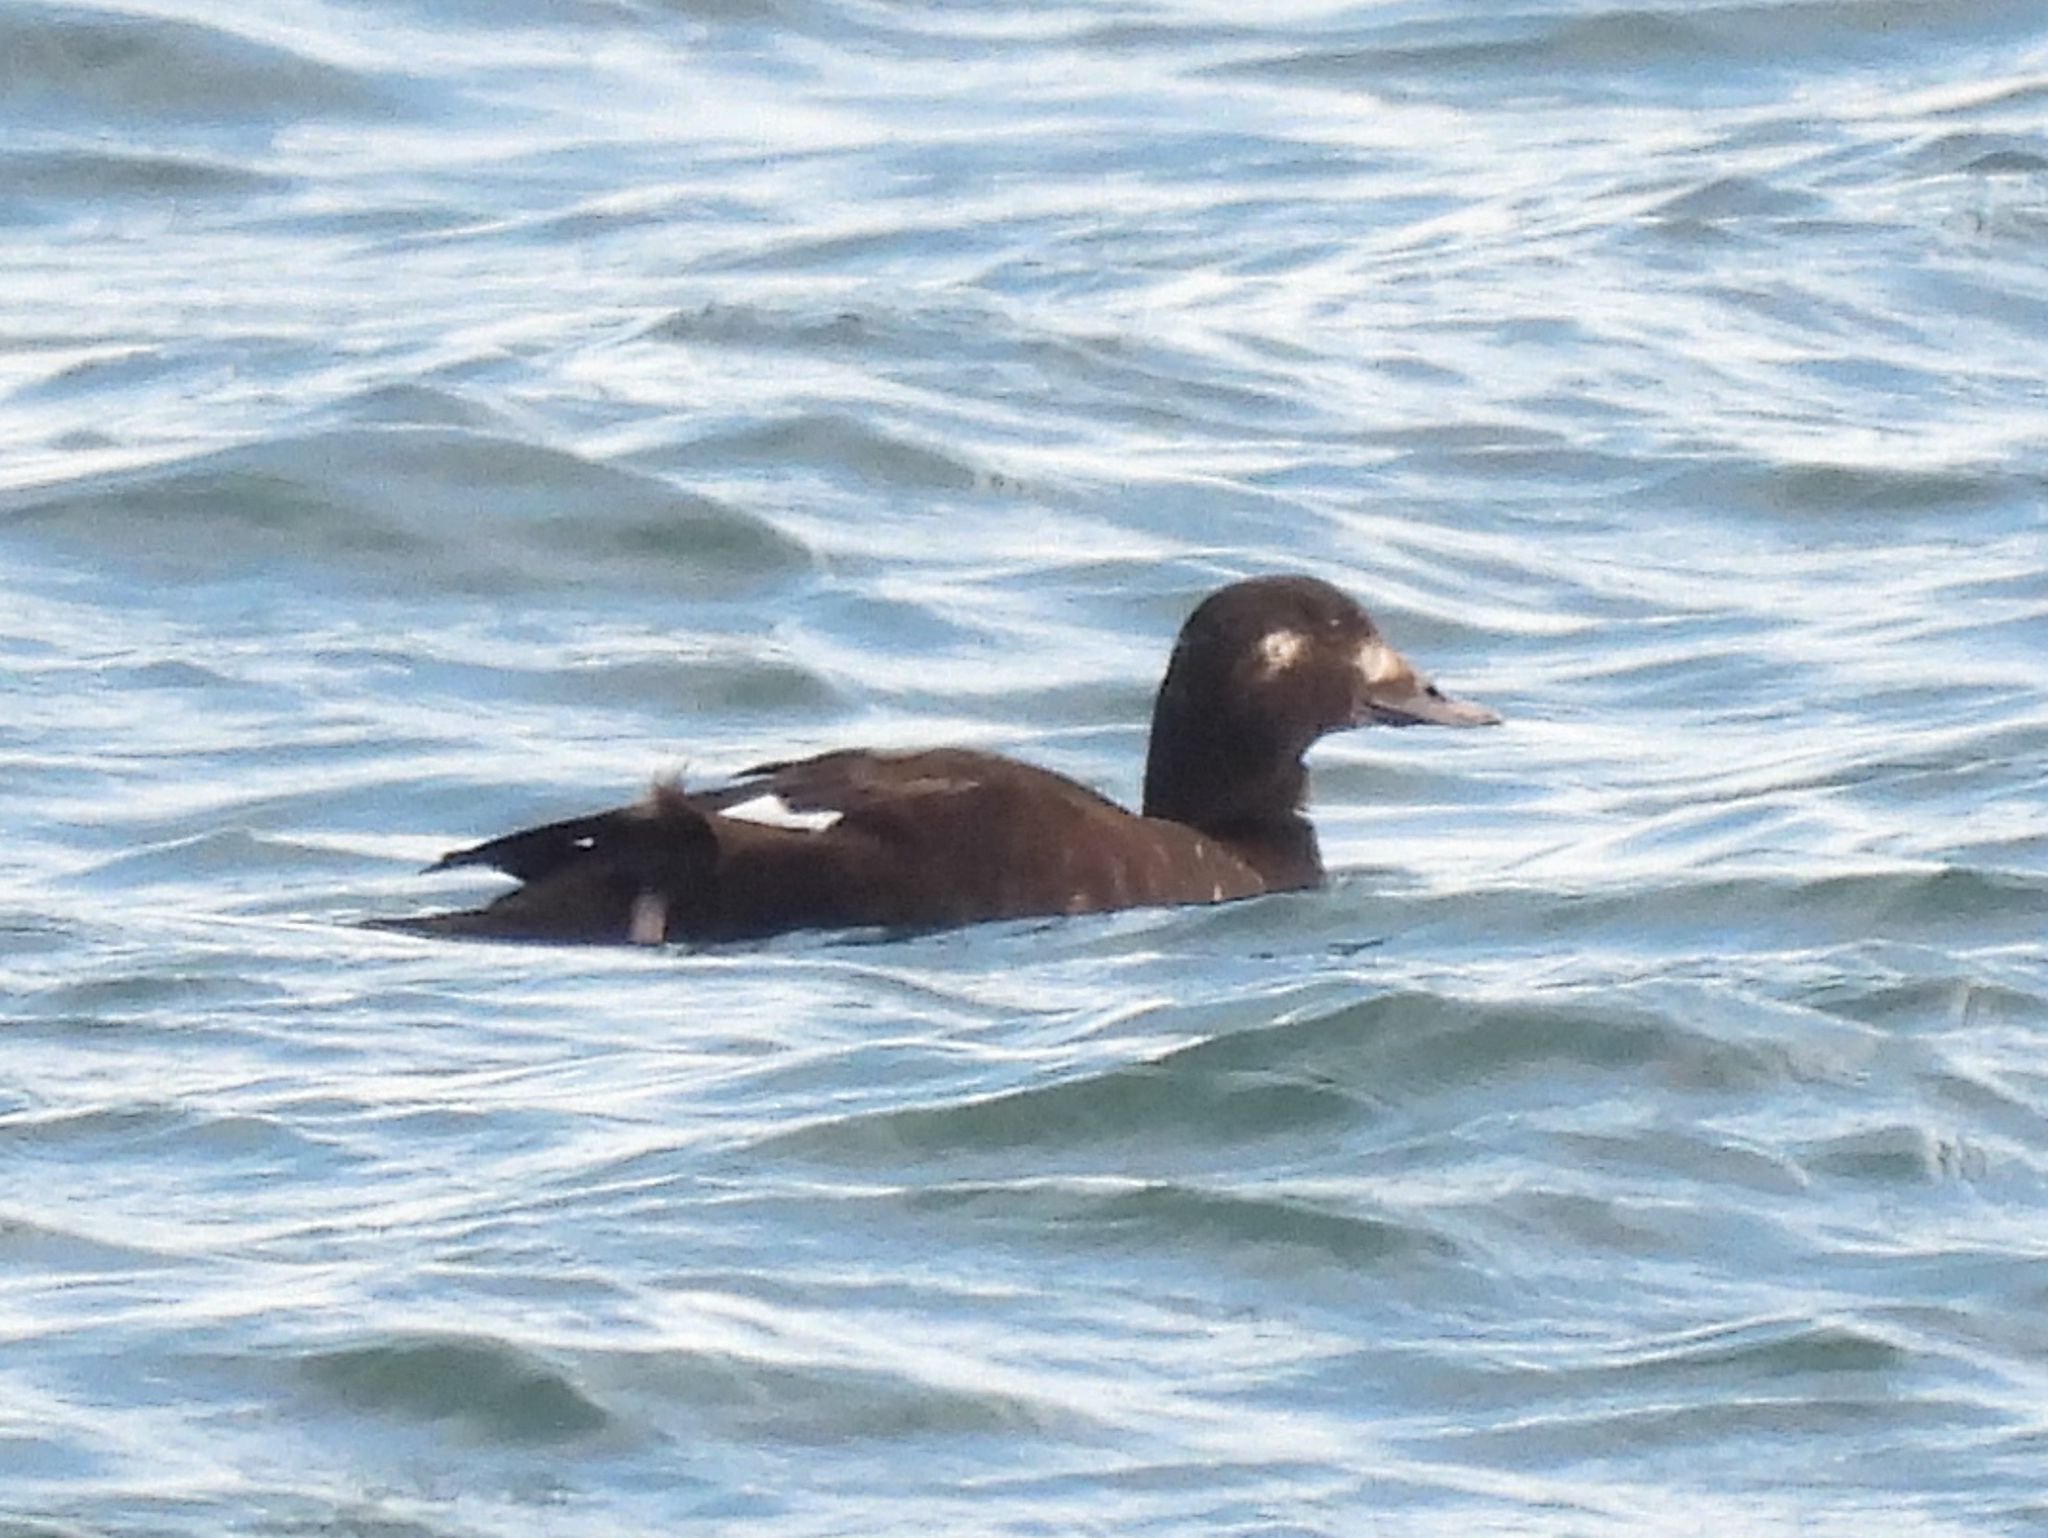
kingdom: Animalia
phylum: Chordata
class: Aves
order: Anseriformes
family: Anatidae
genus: Melanitta
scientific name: Melanitta deglandi
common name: White-winged scoter
